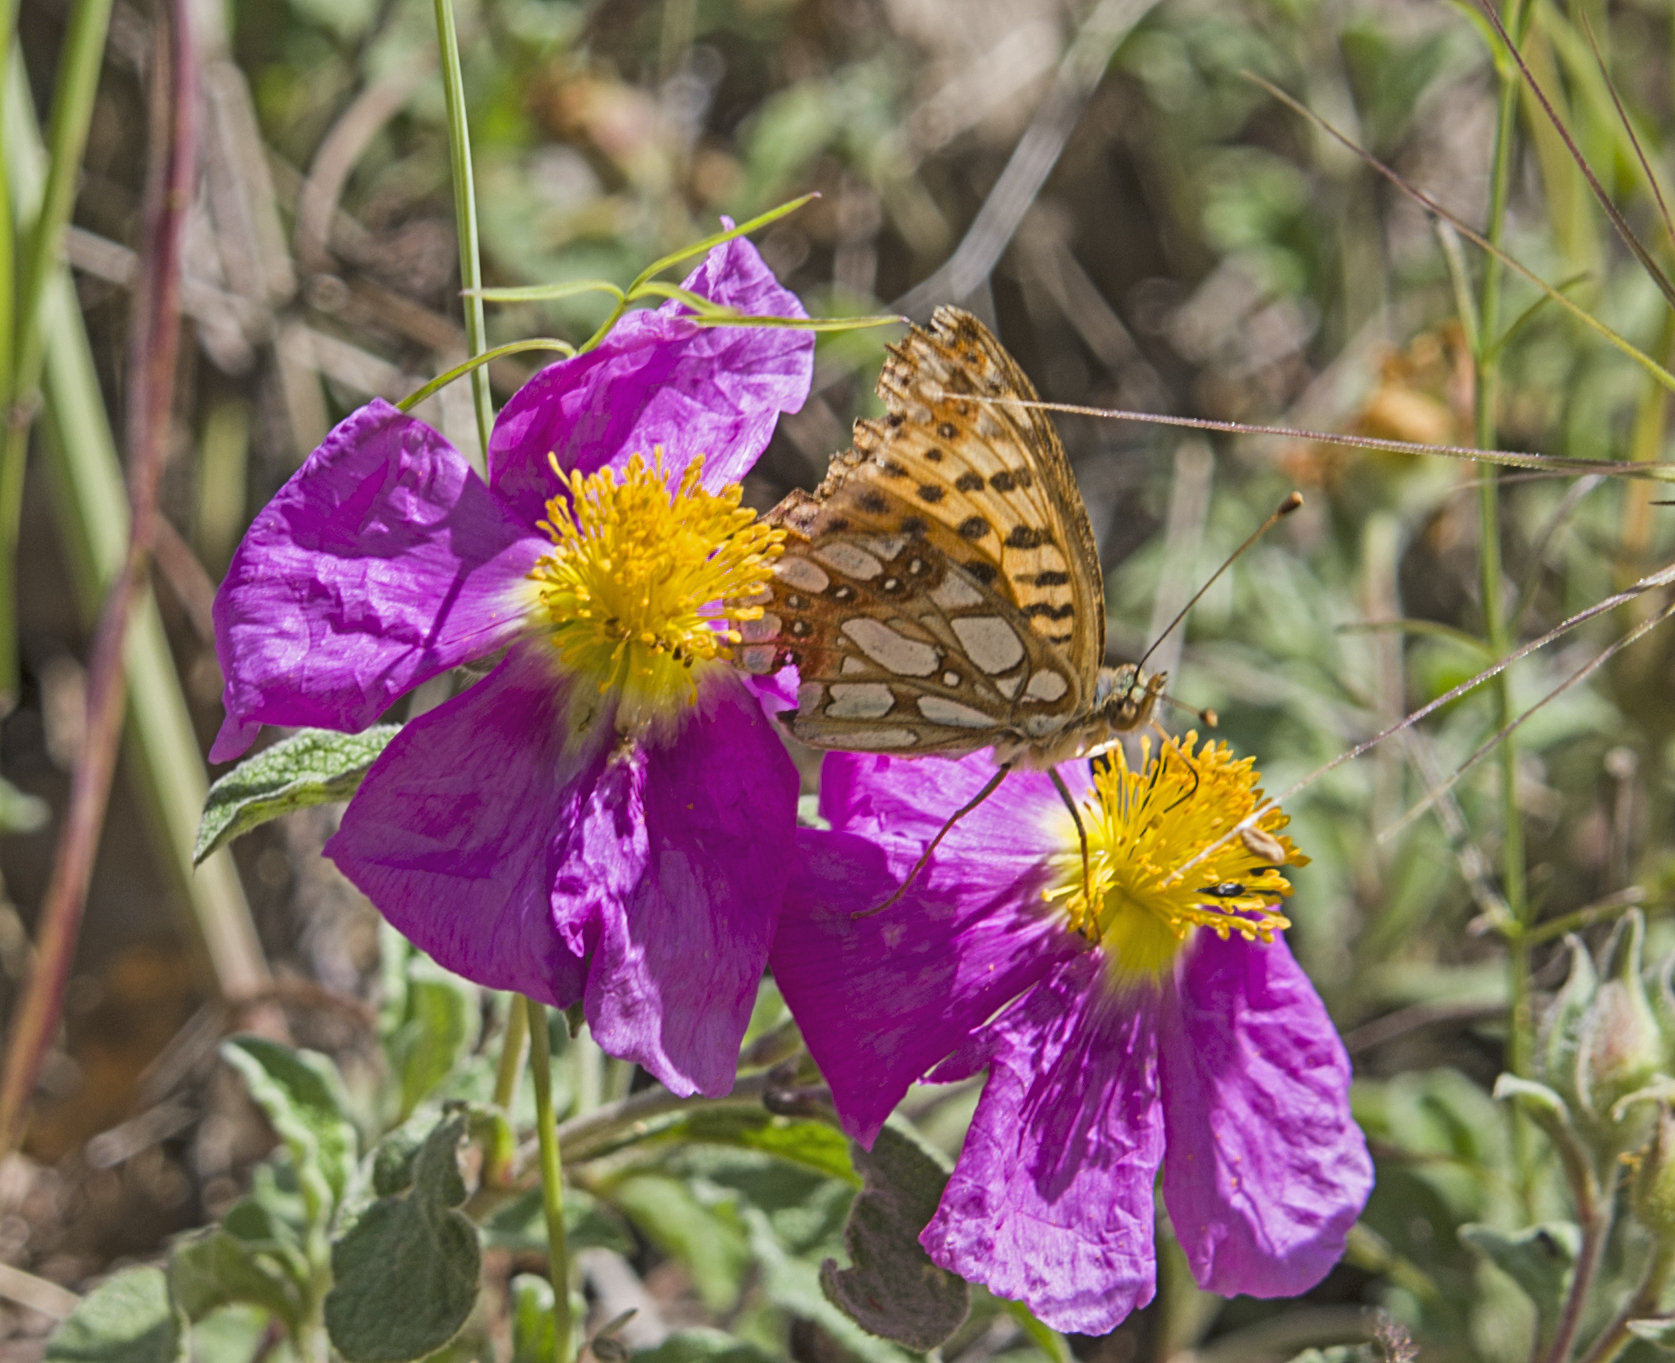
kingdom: Animalia
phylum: Arthropoda
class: Insecta
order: Lepidoptera
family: Nymphalidae
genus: Issoria
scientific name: Issoria lathonia
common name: Queen of spain fritillary
